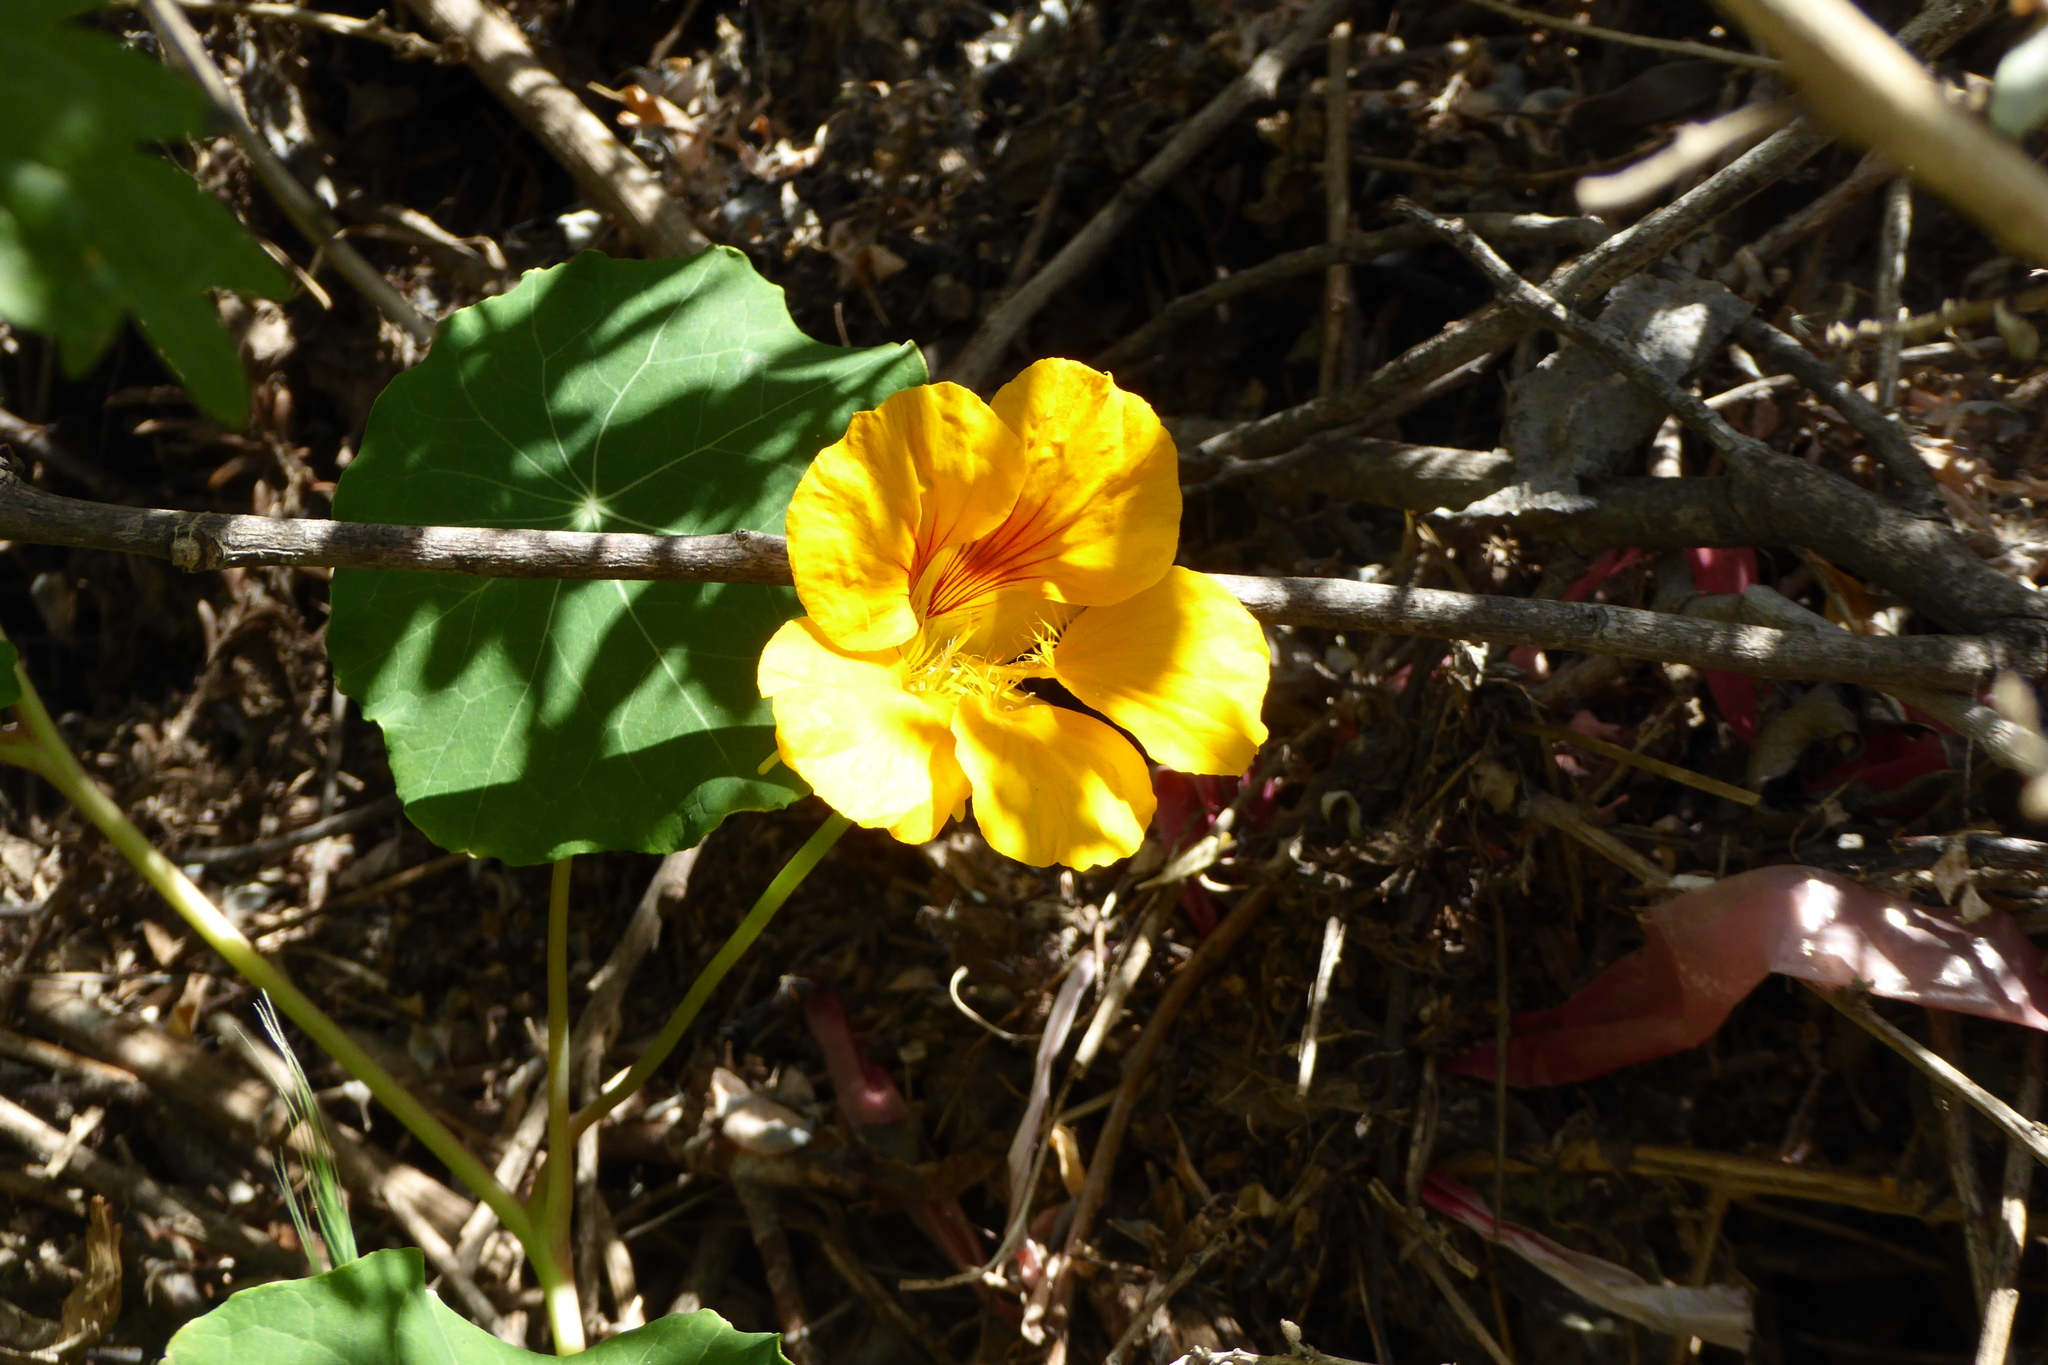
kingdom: Plantae
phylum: Tracheophyta
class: Magnoliopsida
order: Brassicales
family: Tropaeolaceae
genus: Tropaeolum
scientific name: Tropaeolum majus
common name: Nasturtium
